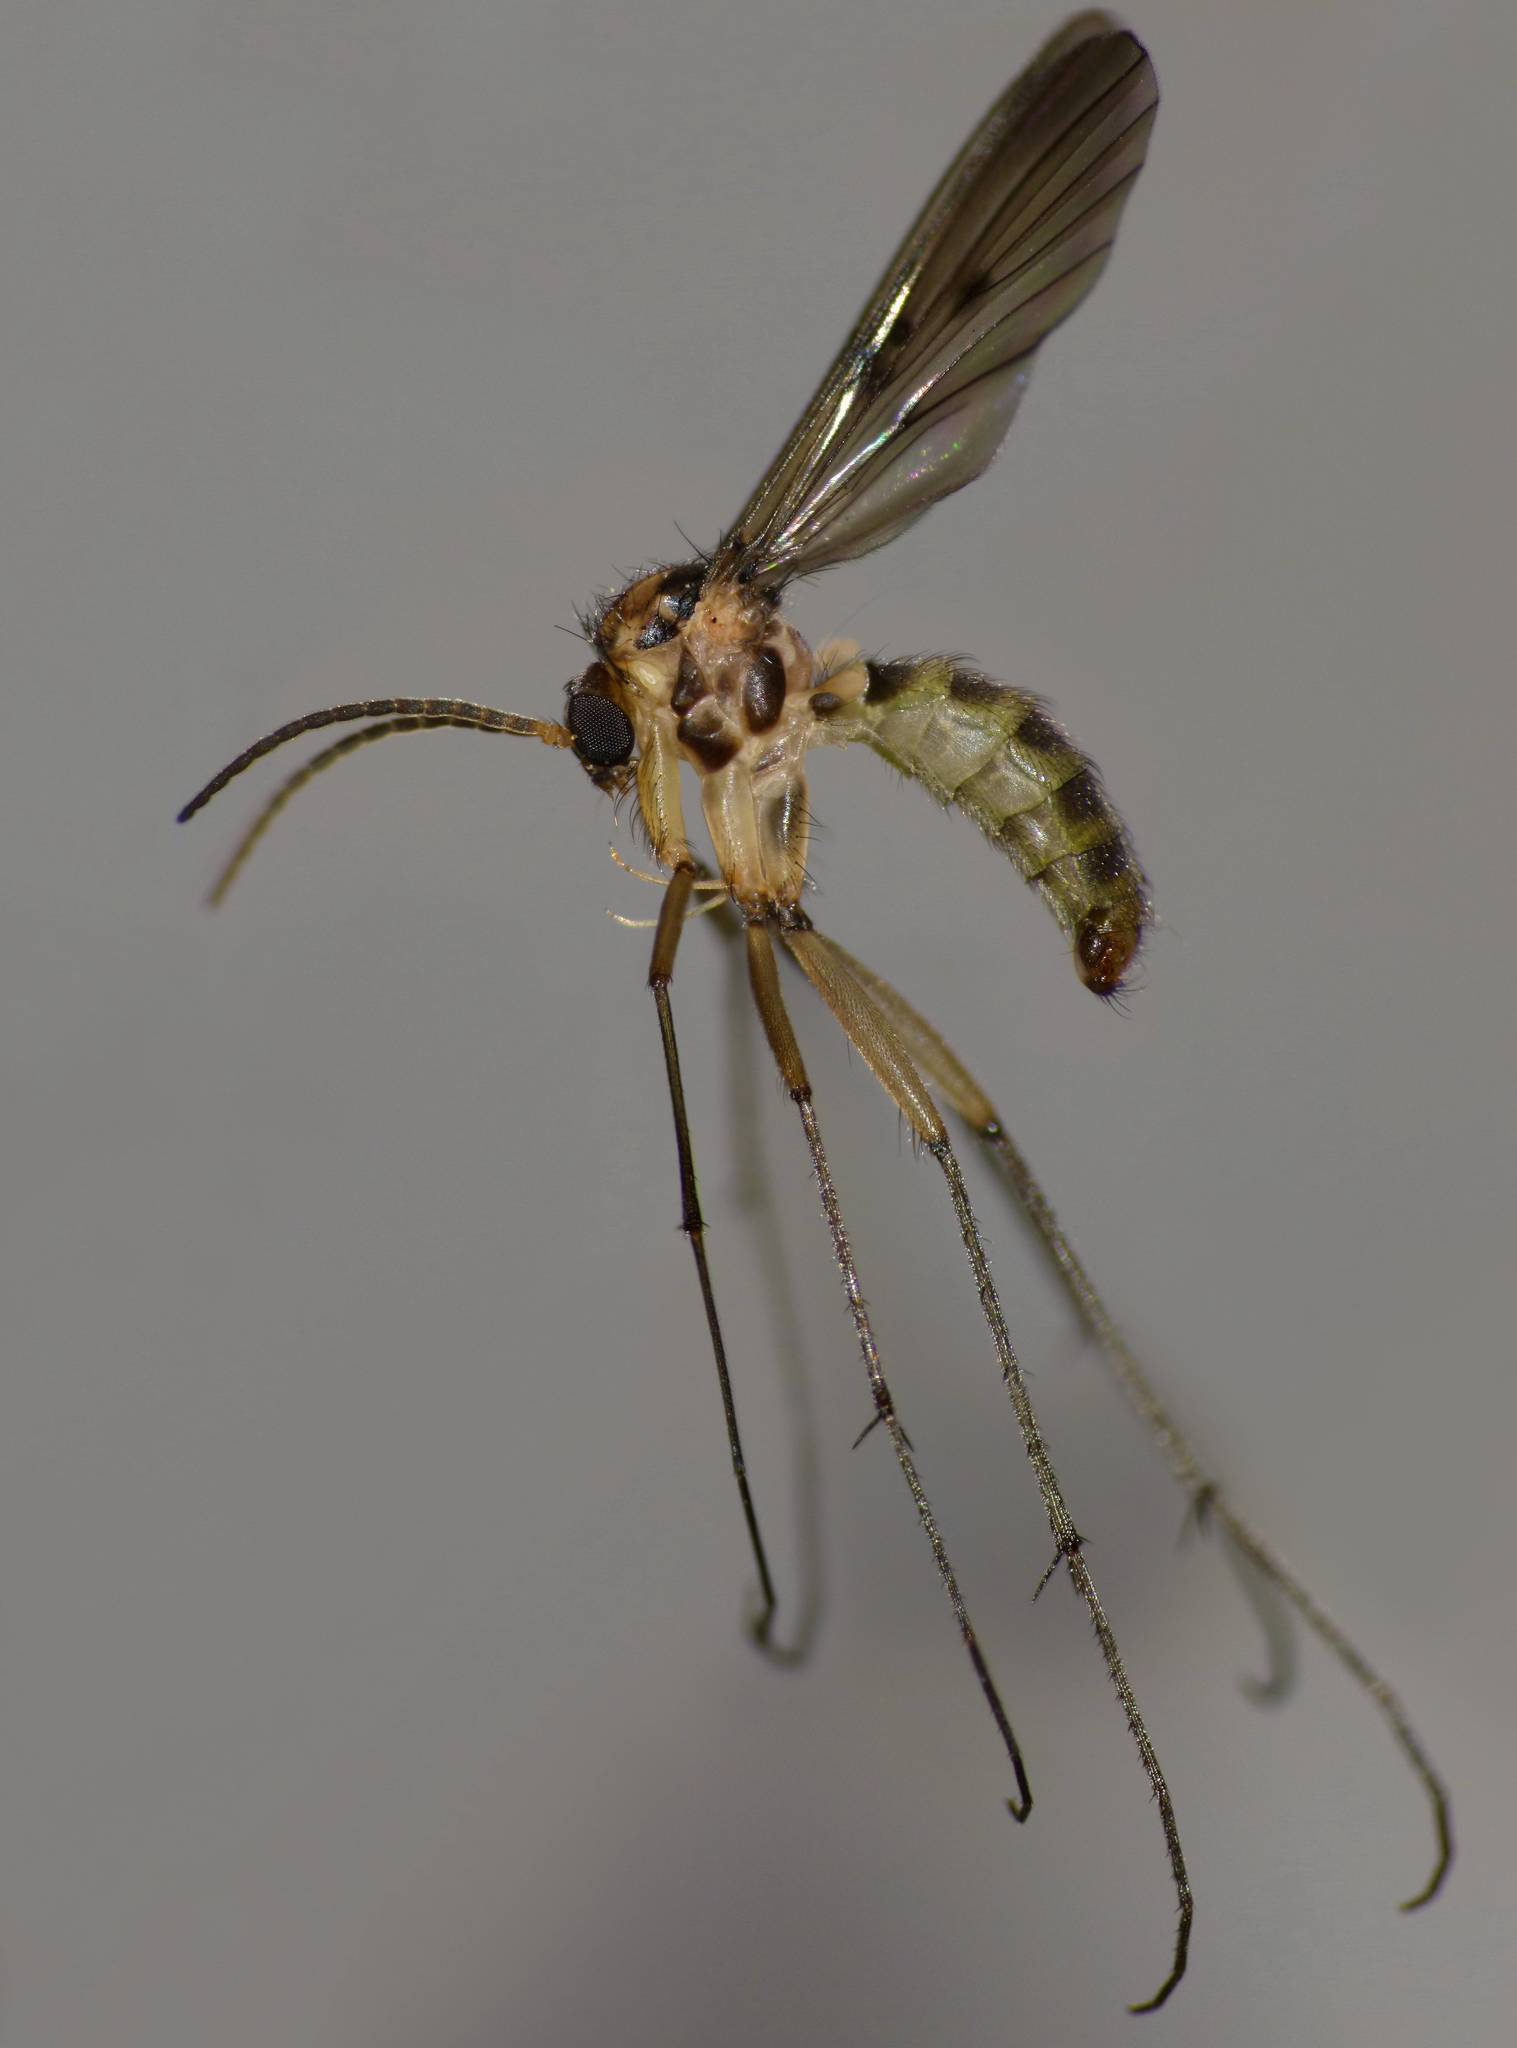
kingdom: Animalia
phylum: Arthropoda
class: Insecta
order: Diptera
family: Mycetophilidae
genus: Mycomya
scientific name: Mycomya quadrimaculata
